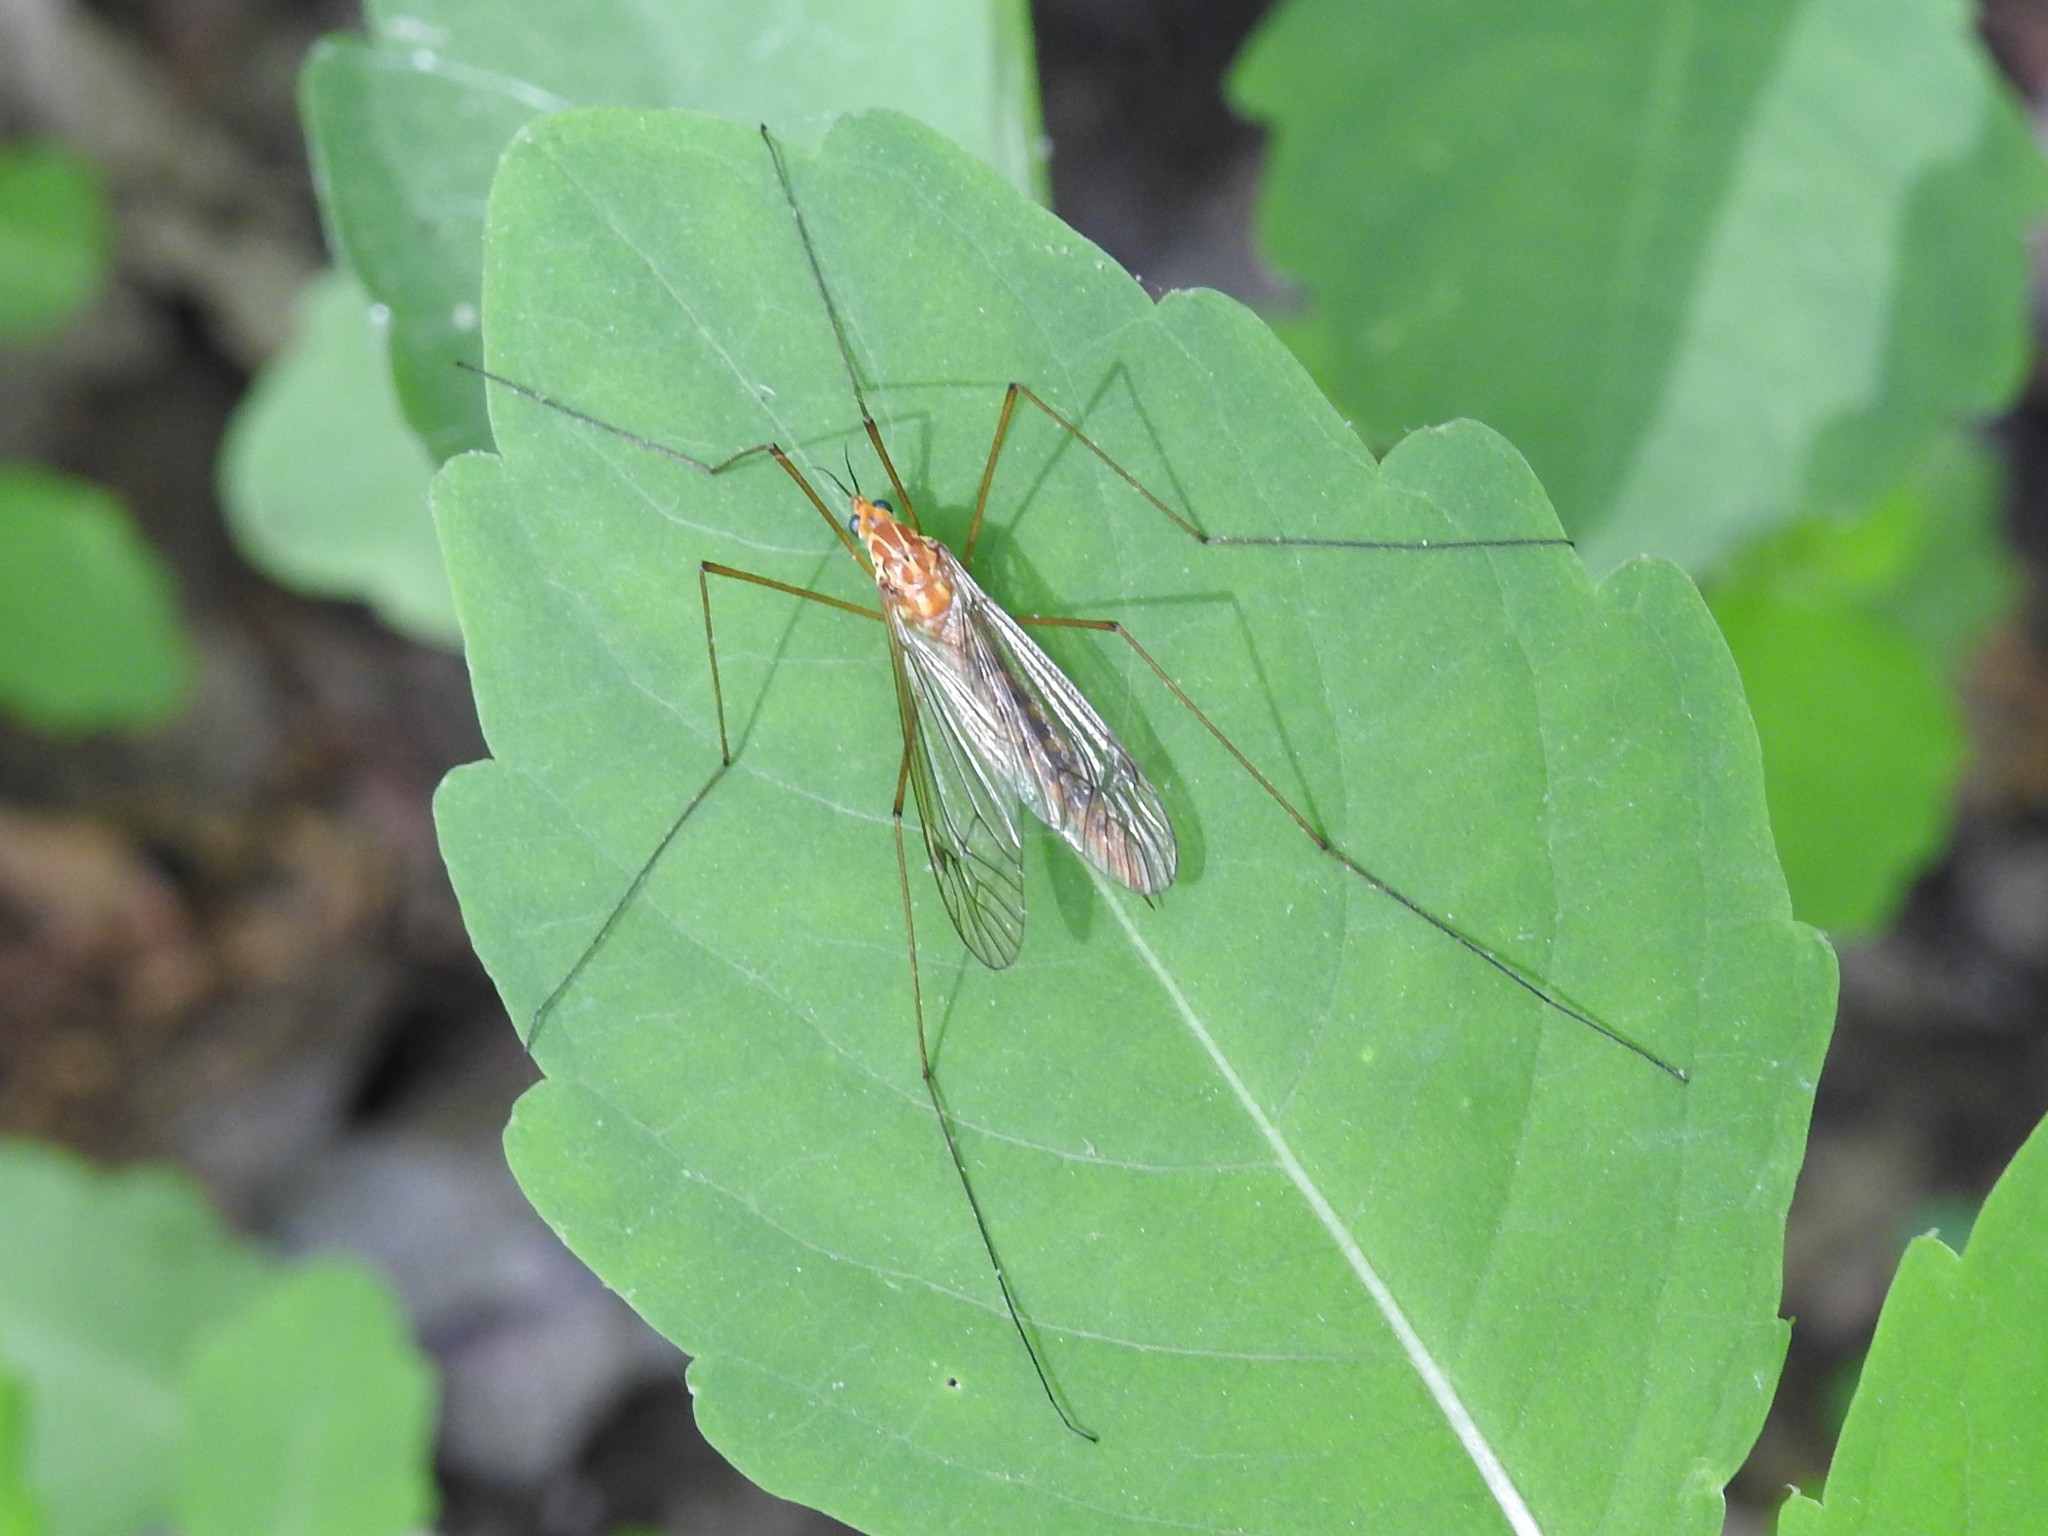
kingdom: Animalia
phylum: Arthropoda
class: Insecta
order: Diptera
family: Tipulidae
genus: Nephrotoma
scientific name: Nephrotoma ferruginea
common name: Ferruginous tiger crane fly
